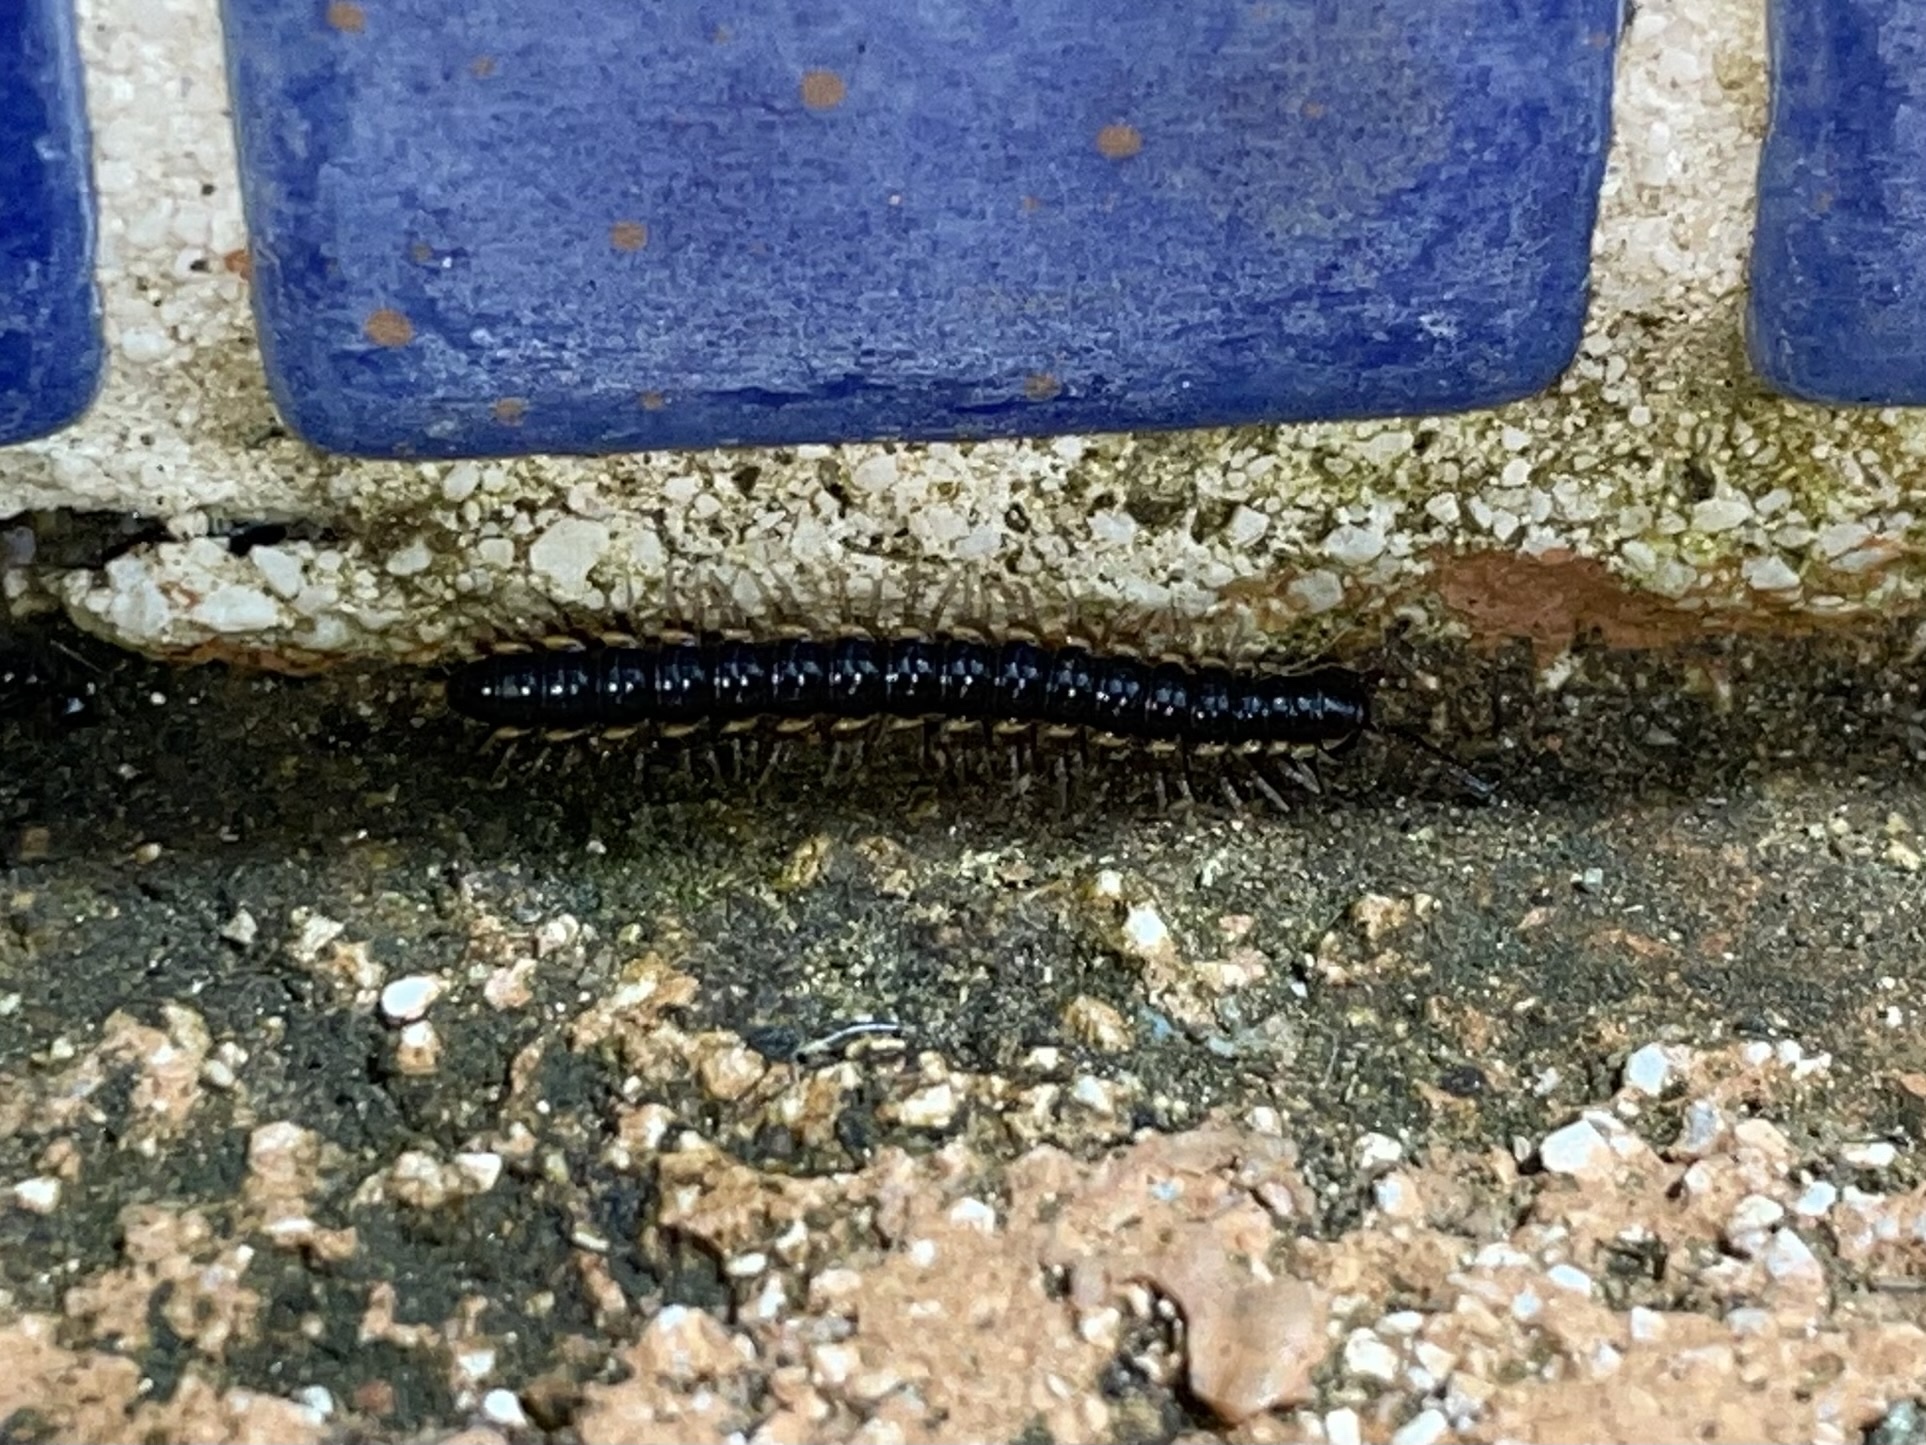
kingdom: Animalia
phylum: Arthropoda
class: Diplopoda
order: Polydesmida
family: Paradoxosomatidae
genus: Orthomorpha
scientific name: Orthomorpha coarctata
